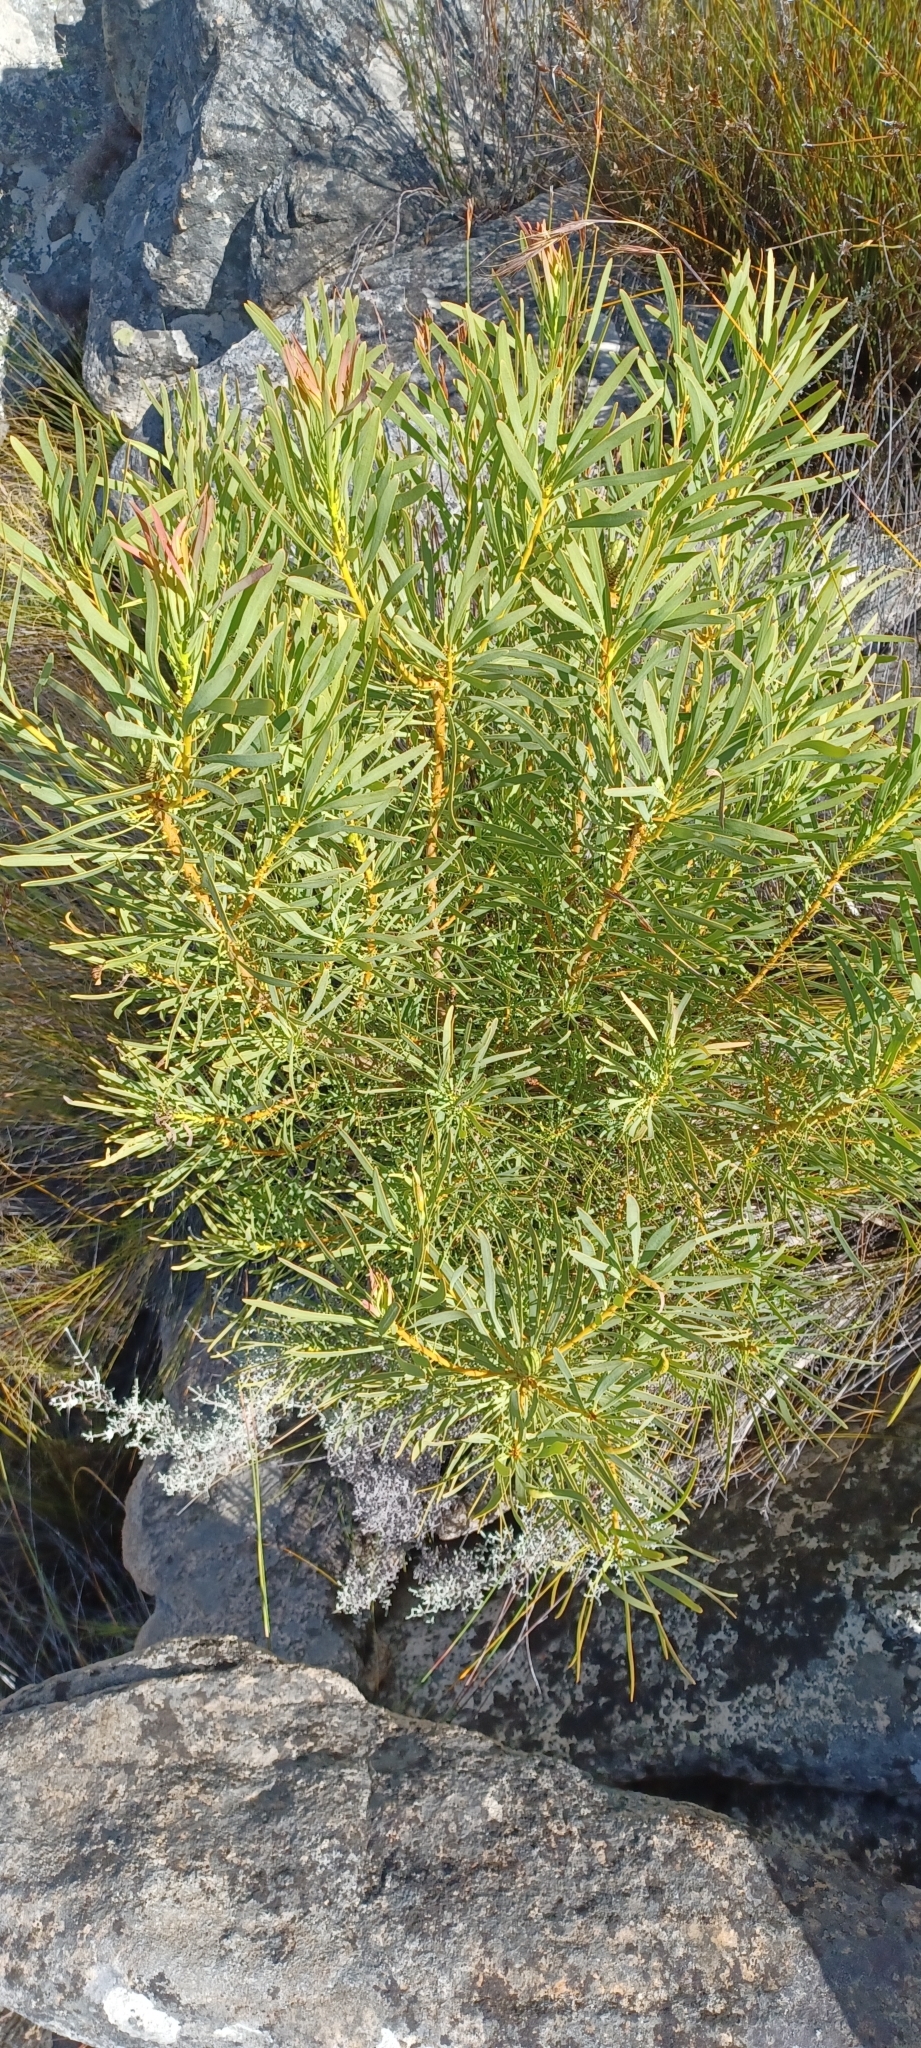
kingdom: Plantae
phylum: Tracheophyta
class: Magnoliopsida
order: Proteales
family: Proteaceae
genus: Protea
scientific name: Protea repens
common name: Sugarbush
